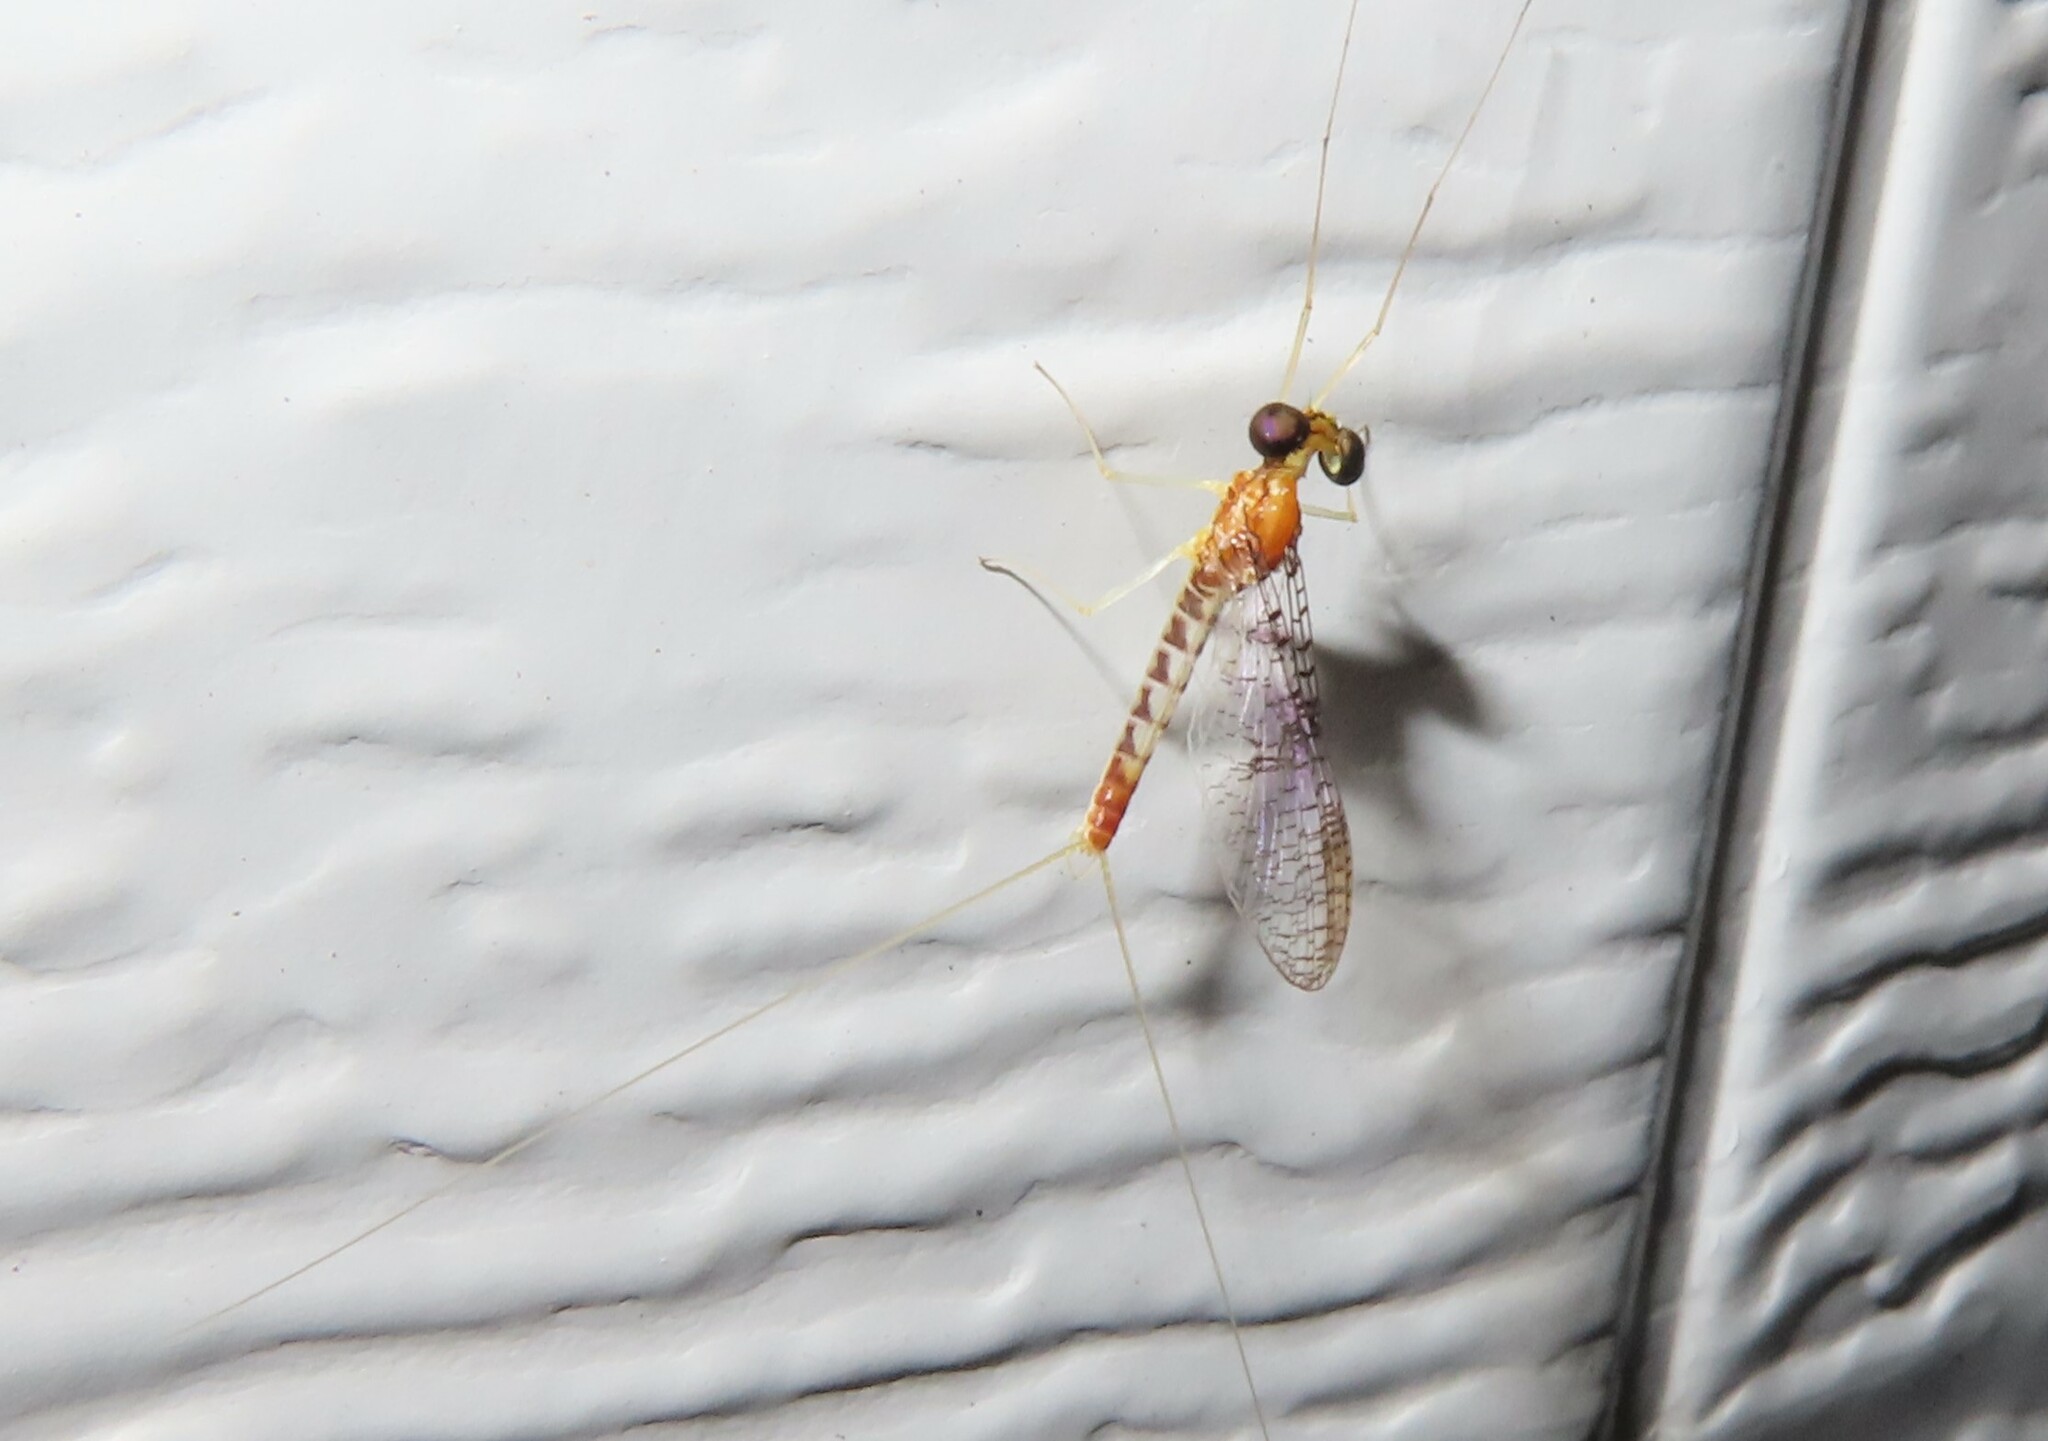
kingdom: Animalia
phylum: Arthropoda
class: Insecta
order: Ephemeroptera
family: Heptageniidae
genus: Stenacron
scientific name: Stenacron interpunctatum
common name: Orange cahill
